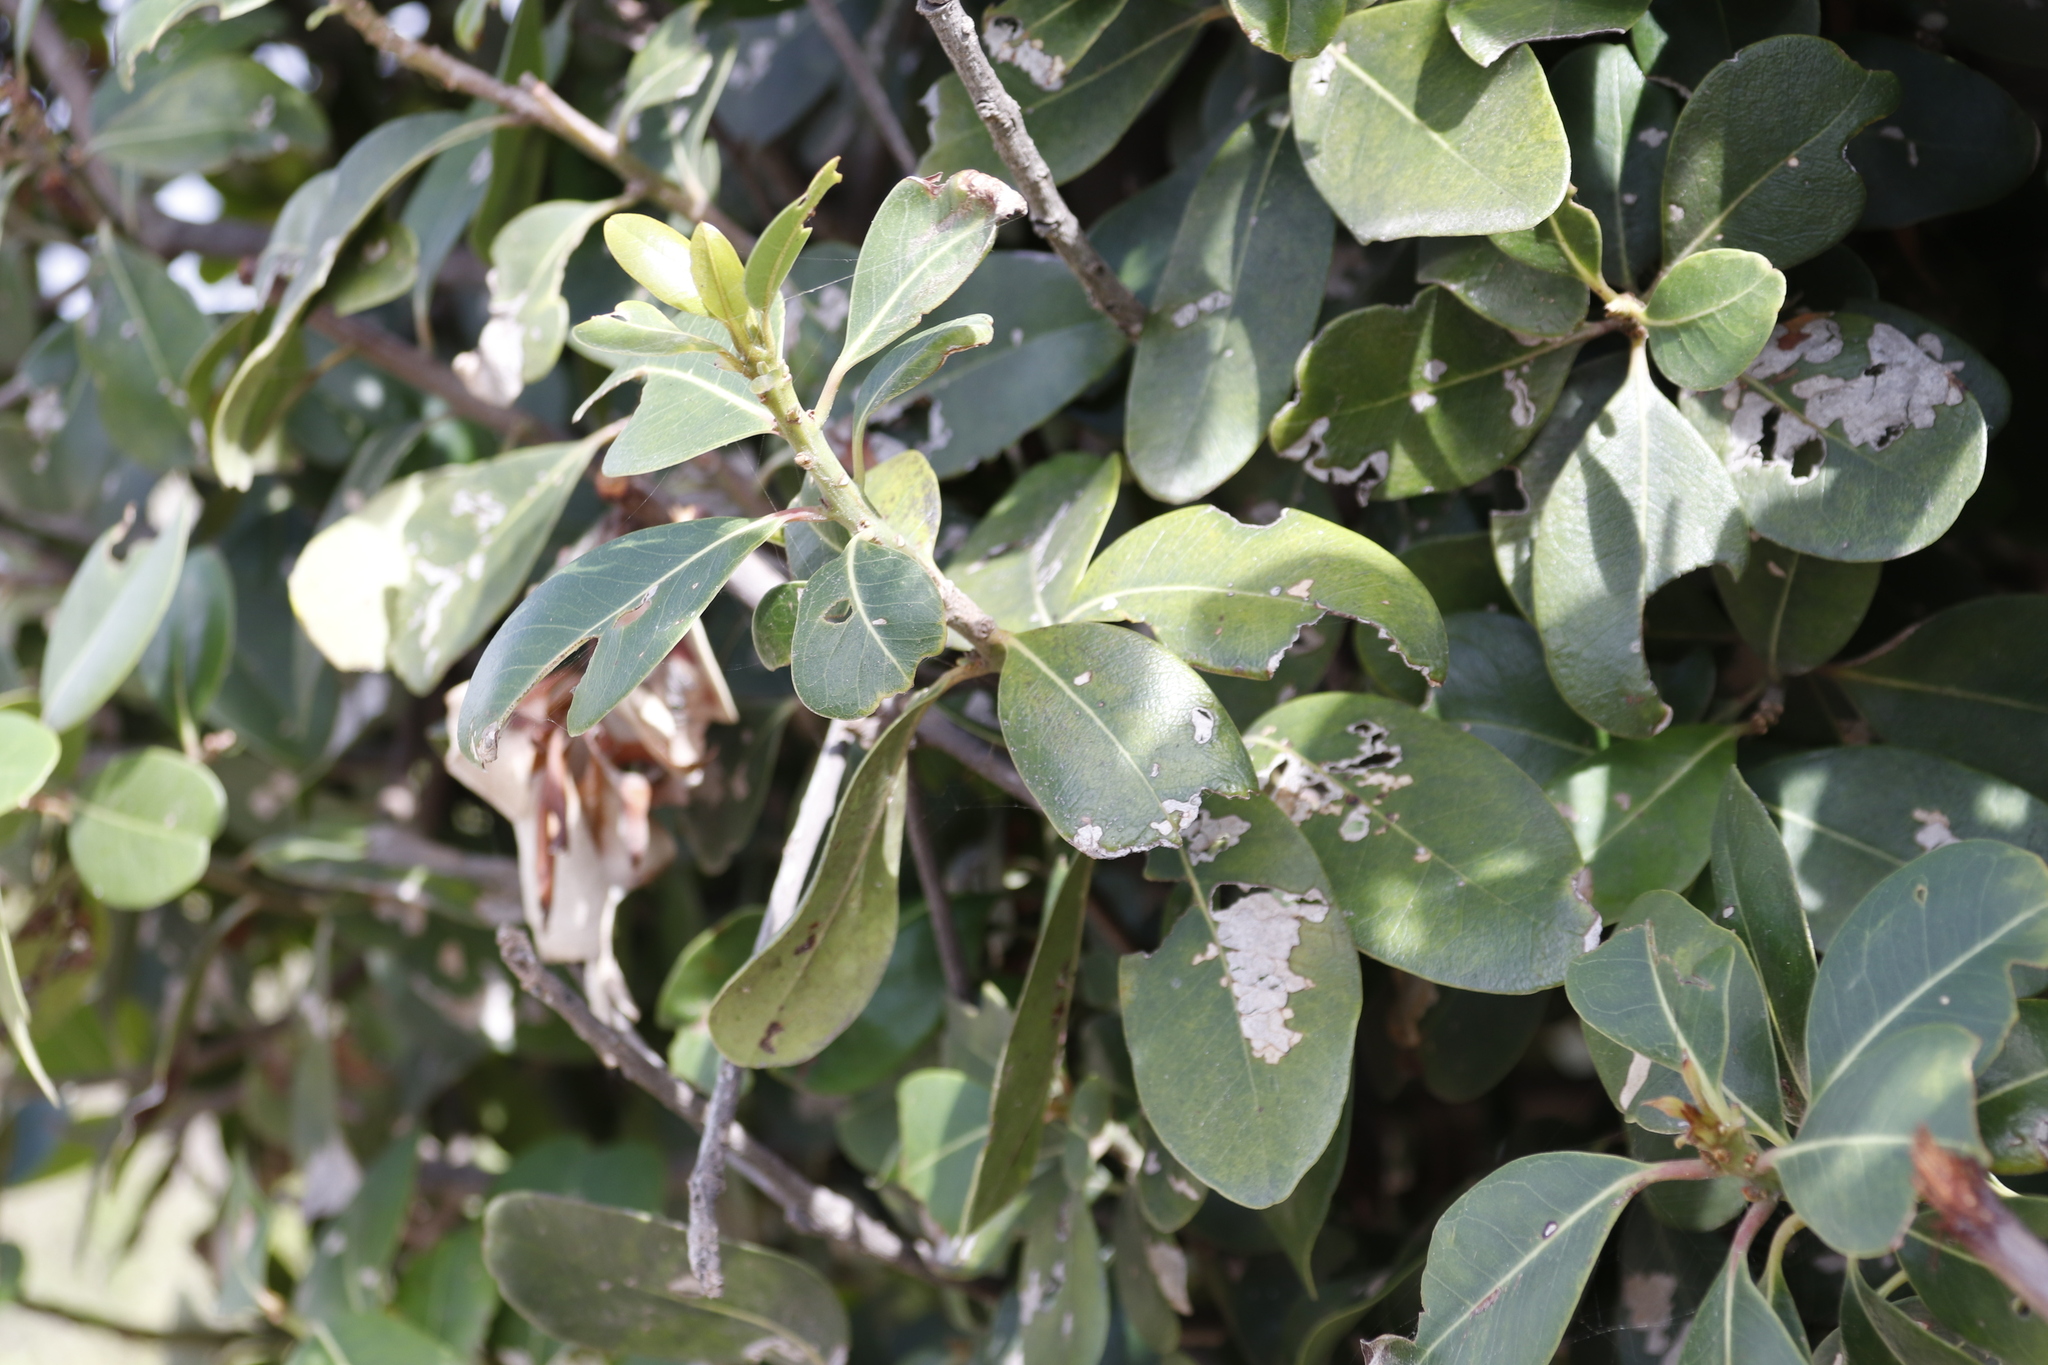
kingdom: Plantae
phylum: Tracheophyta
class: Magnoliopsida
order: Ericales
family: Sapotaceae
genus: Sideroxylon
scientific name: Sideroxylon inerme
